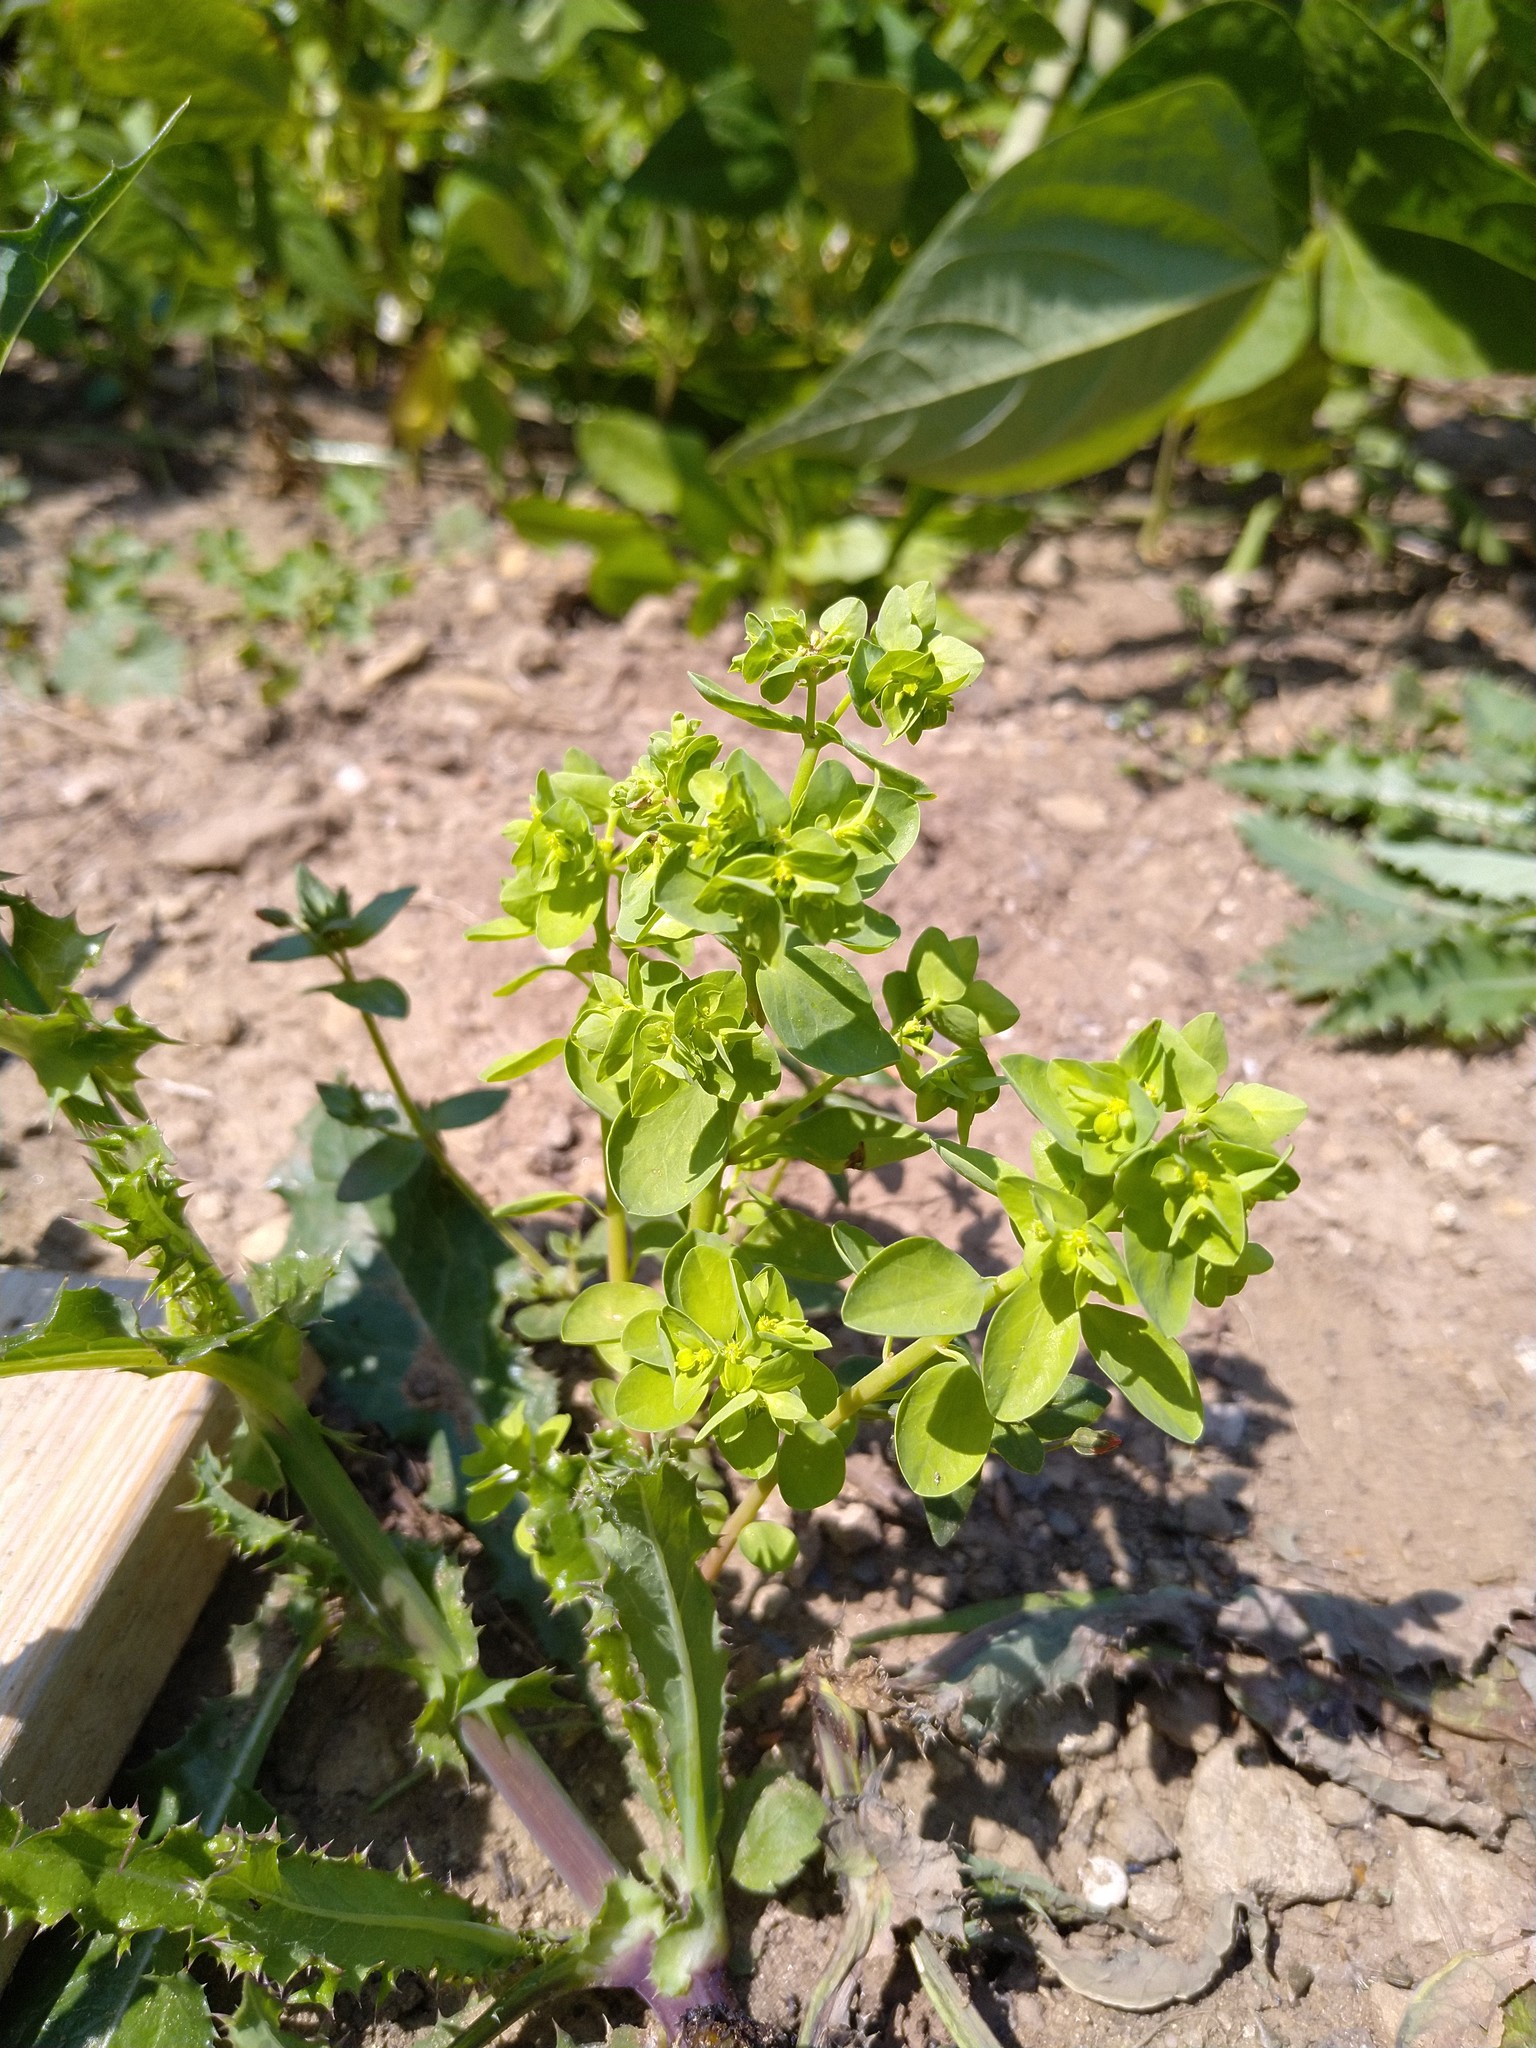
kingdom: Plantae
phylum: Tracheophyta
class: Magnoliopsida
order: Malpighiales
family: Euphorbiaceae
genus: Euphorbia
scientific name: Euphorbia peplus
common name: Petty spurge
